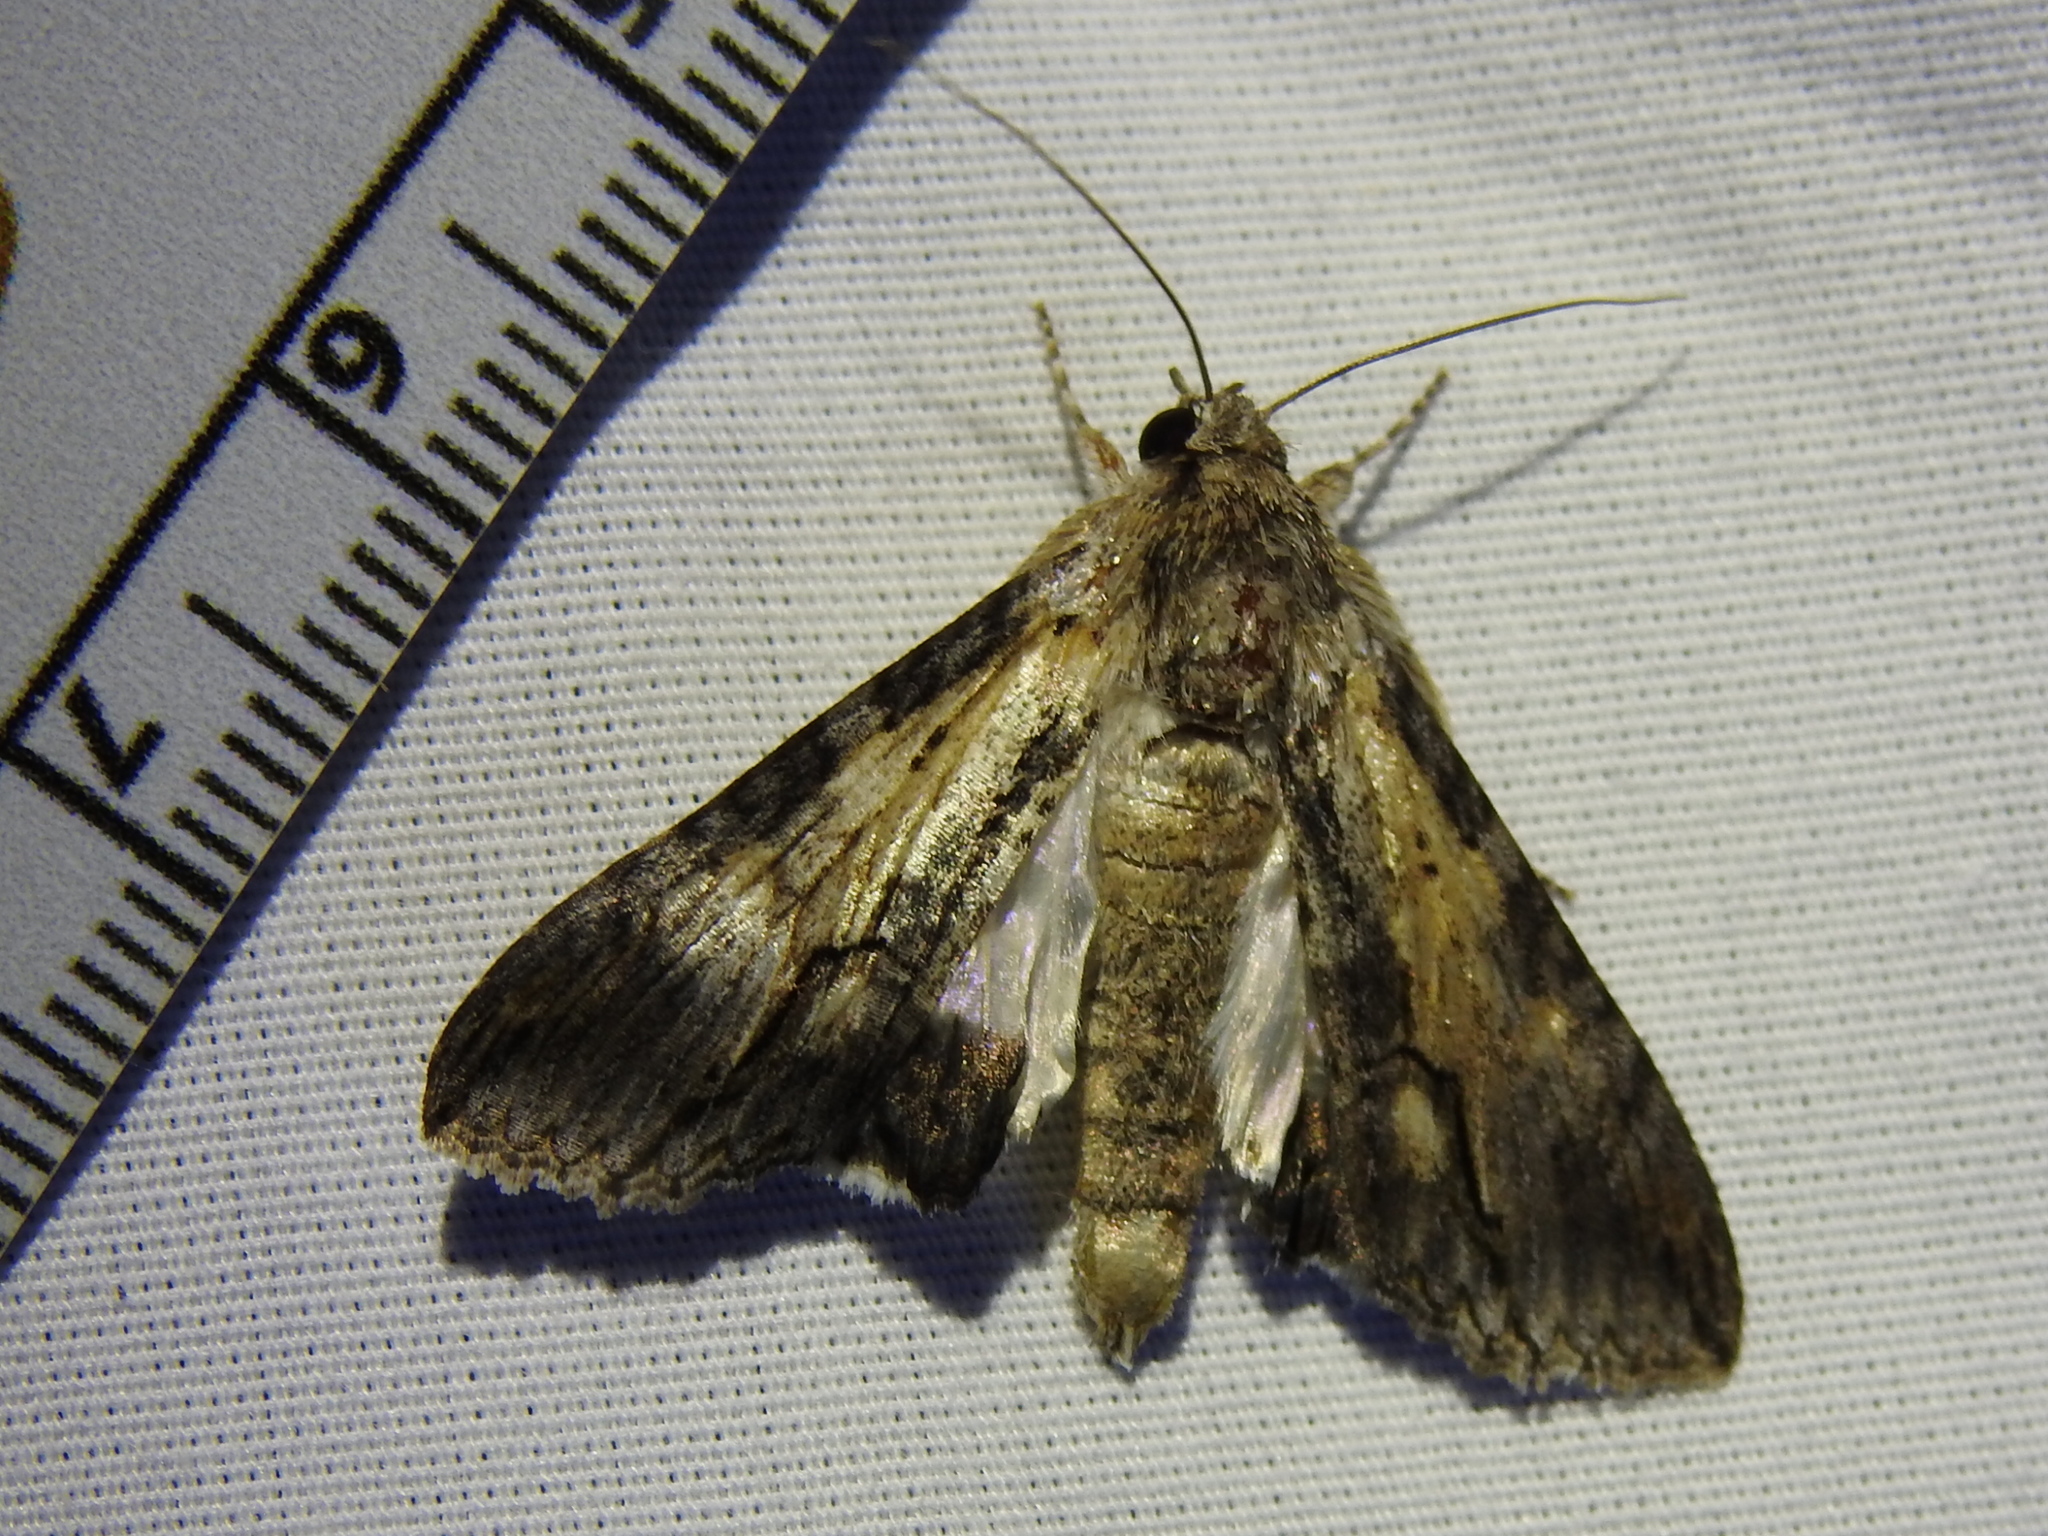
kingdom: Animalia
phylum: Arthropoda
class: Insecta
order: Lepidoptera
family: Erebidae
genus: Melipotis
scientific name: Melipotis acontioides
